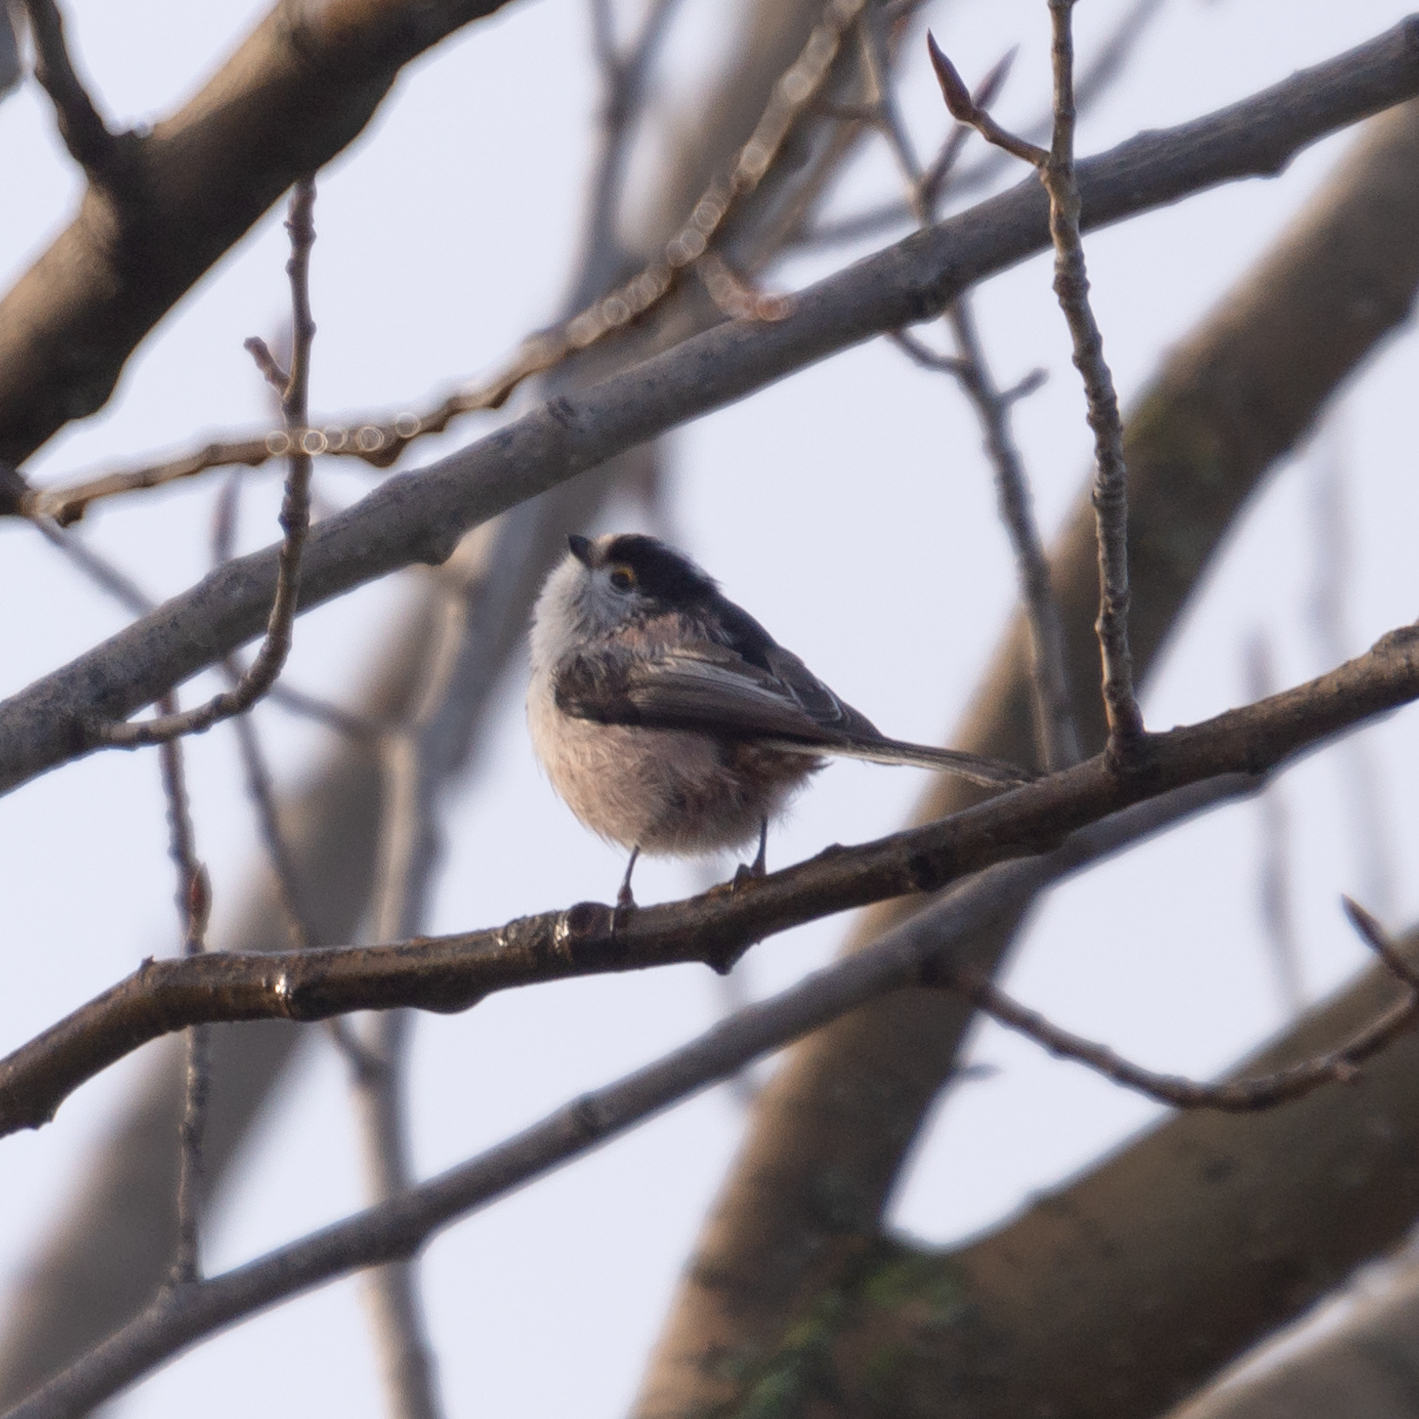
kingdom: Animalia
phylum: Chordata
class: Aves
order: Passeriformes
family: Aegithalidae
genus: Aegithalos
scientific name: Aegithalos caudatus
